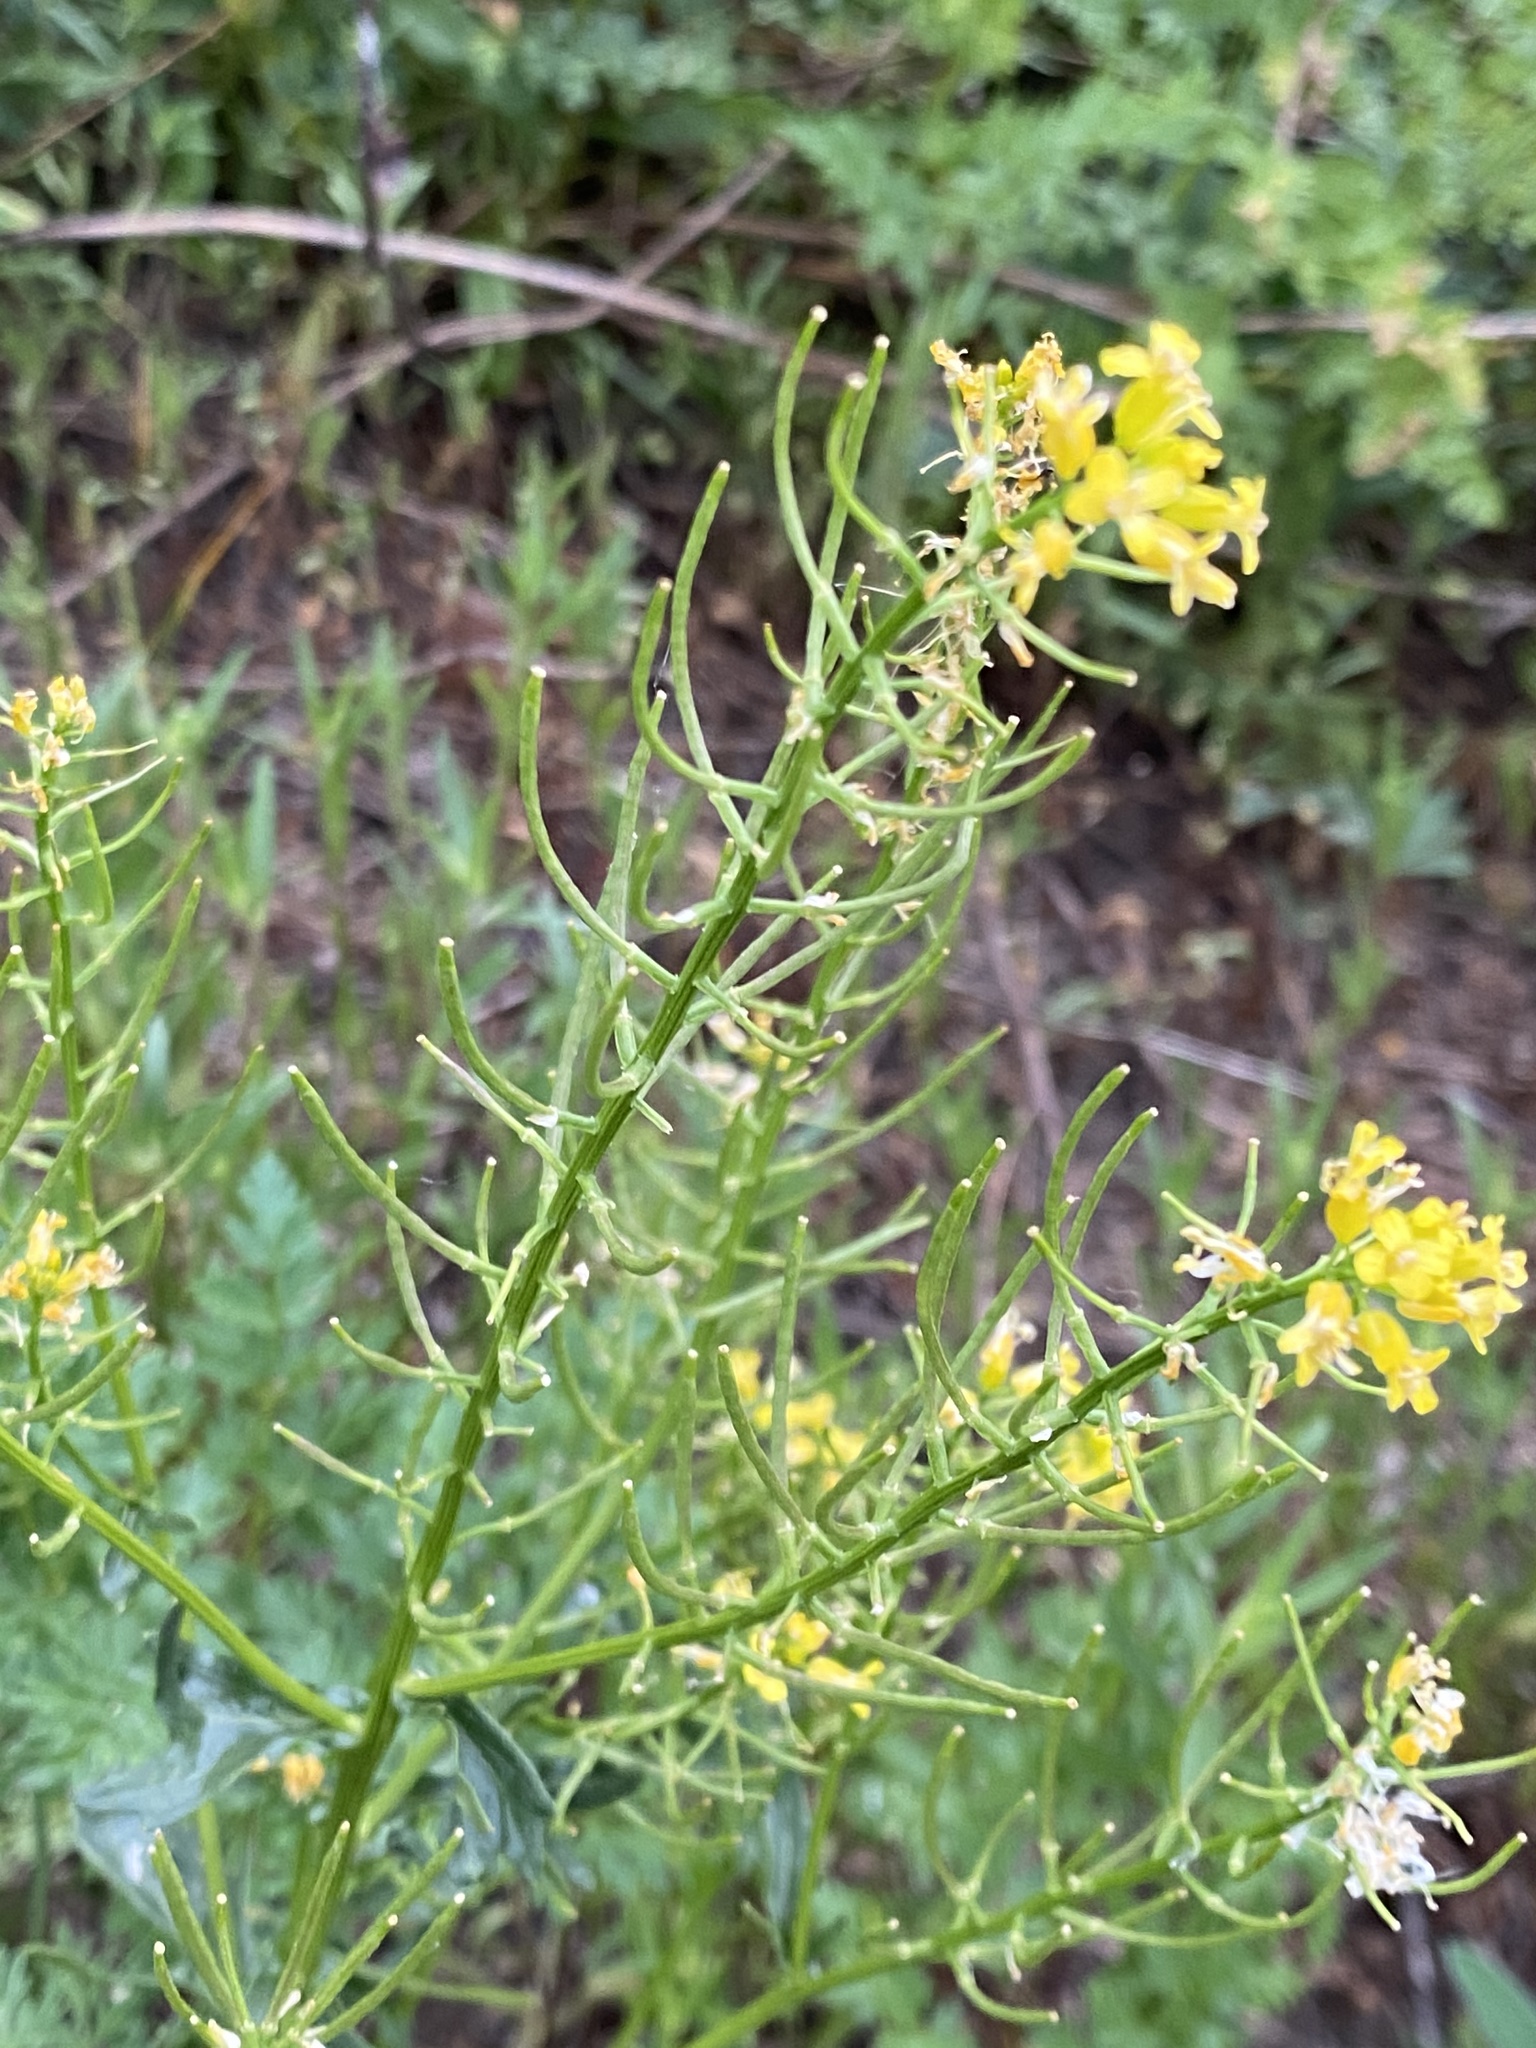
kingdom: Plantae
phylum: Tracheophyta
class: Magnoliopsida
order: Brassicales
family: Brassicaceae
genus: Barbarea
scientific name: Barbarea vulgaris
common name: Cressy-greens
